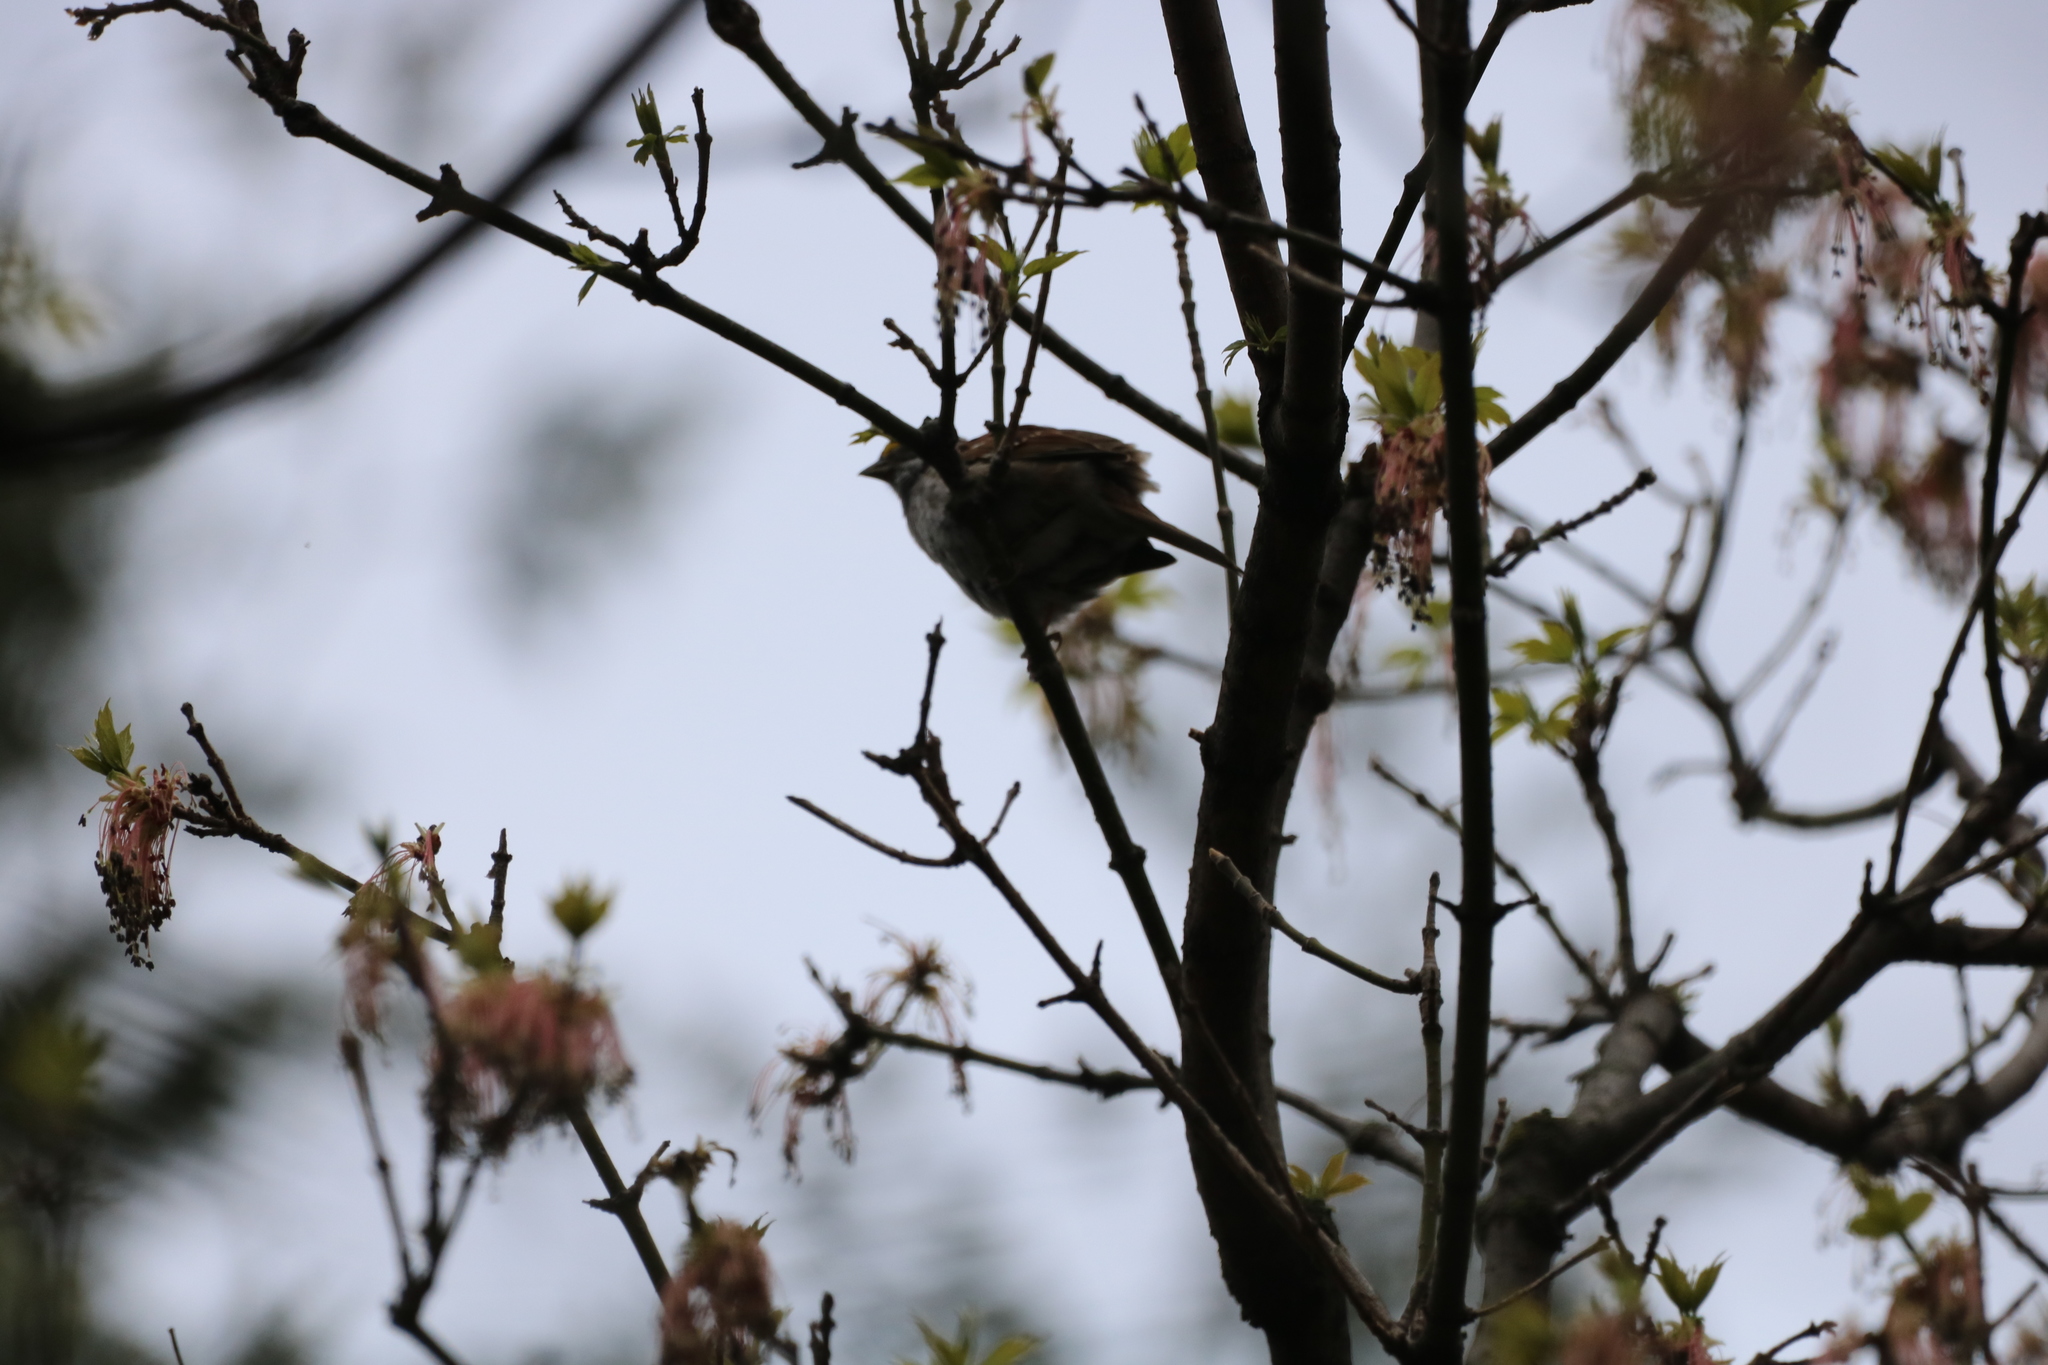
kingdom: Animalia
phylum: Chordata
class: Aves
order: Passeriformes
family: Passerellidae
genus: Zonotrichia
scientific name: Zonotrichia albicollis
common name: White-throated sparrow
